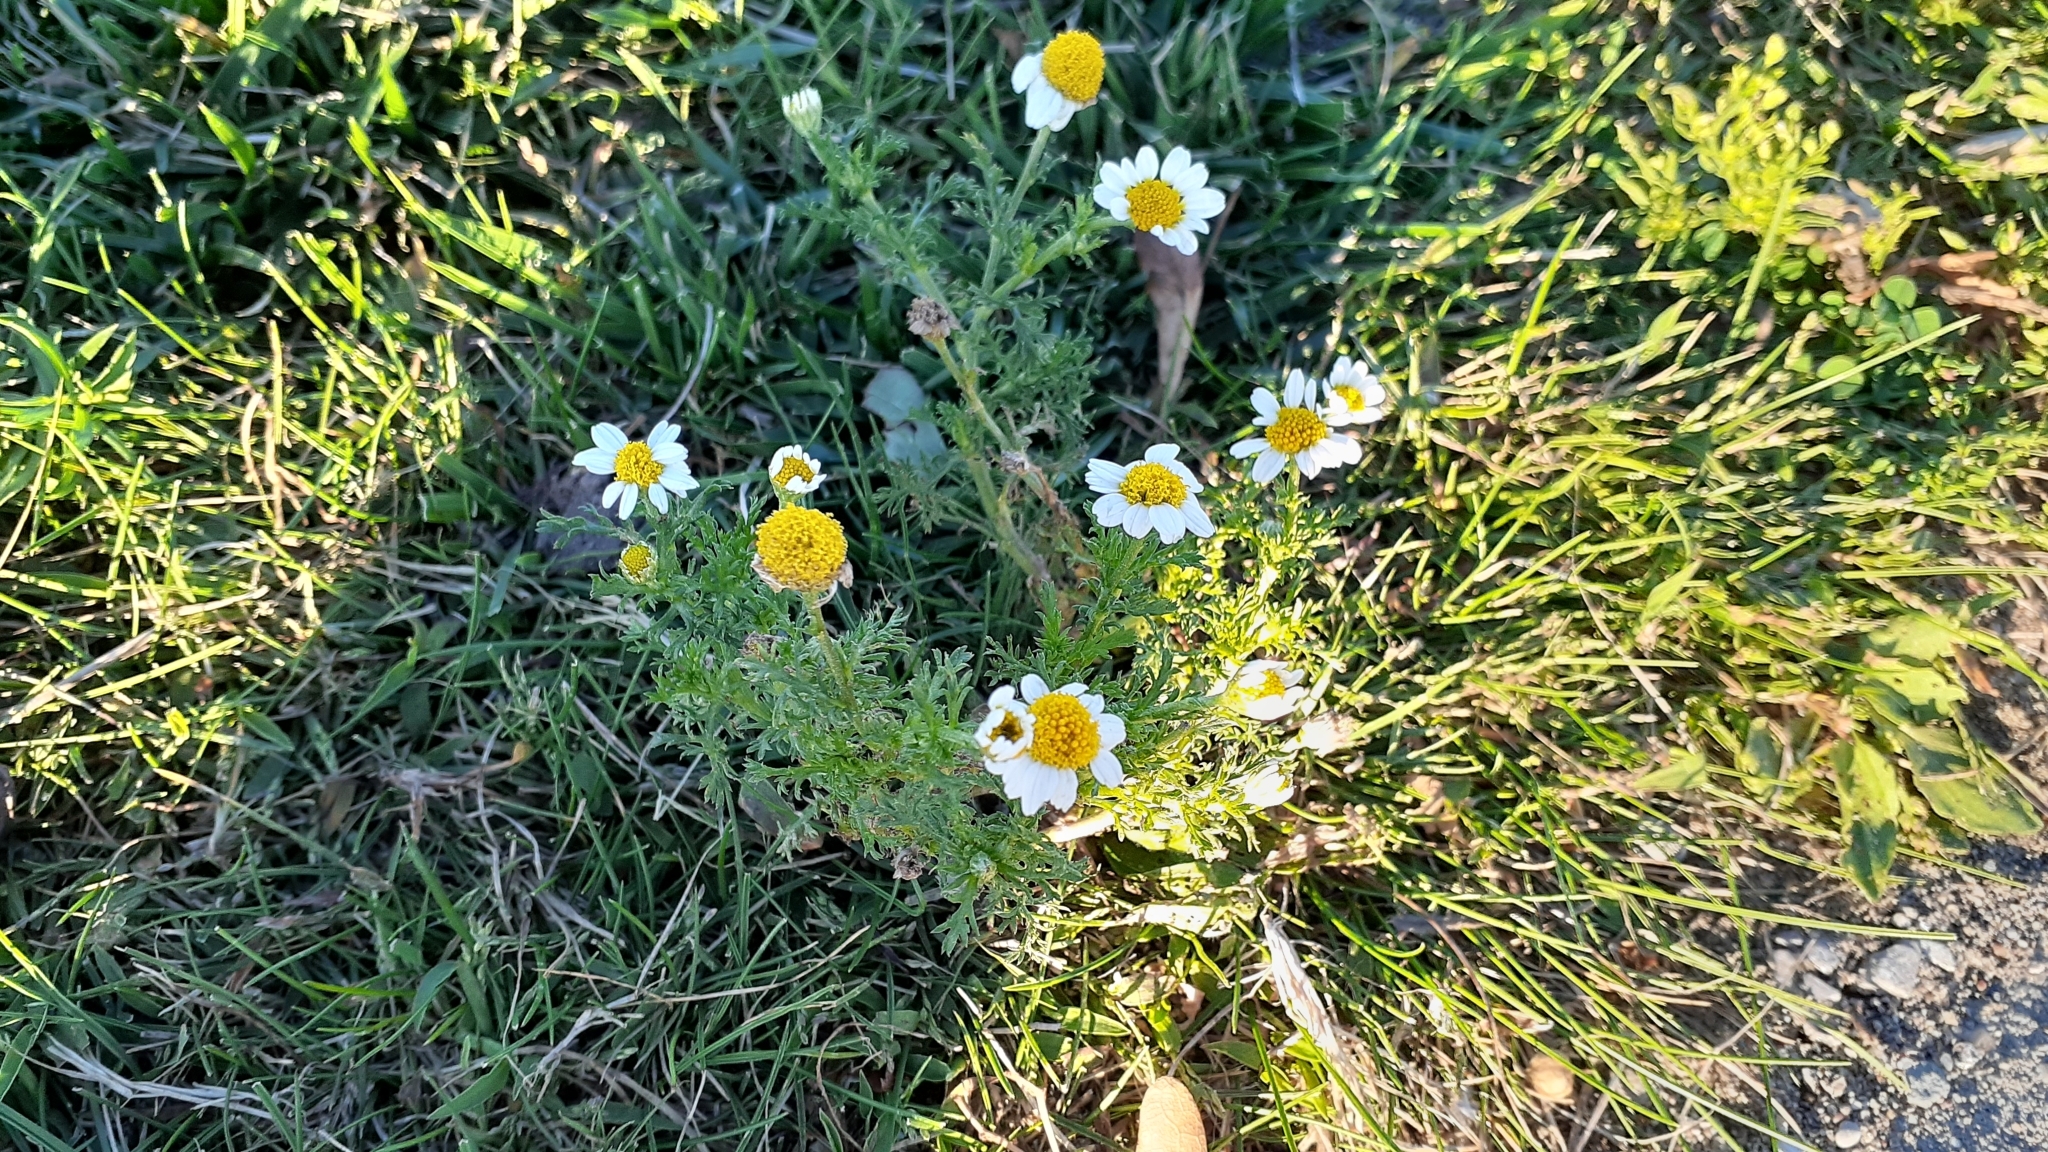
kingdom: Plantae
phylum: Tracheophyta
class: Magnoliopsida
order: Asterales
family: Asteraceae
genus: Anthemis
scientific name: Anthemis cotula
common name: Stinking chamomile
